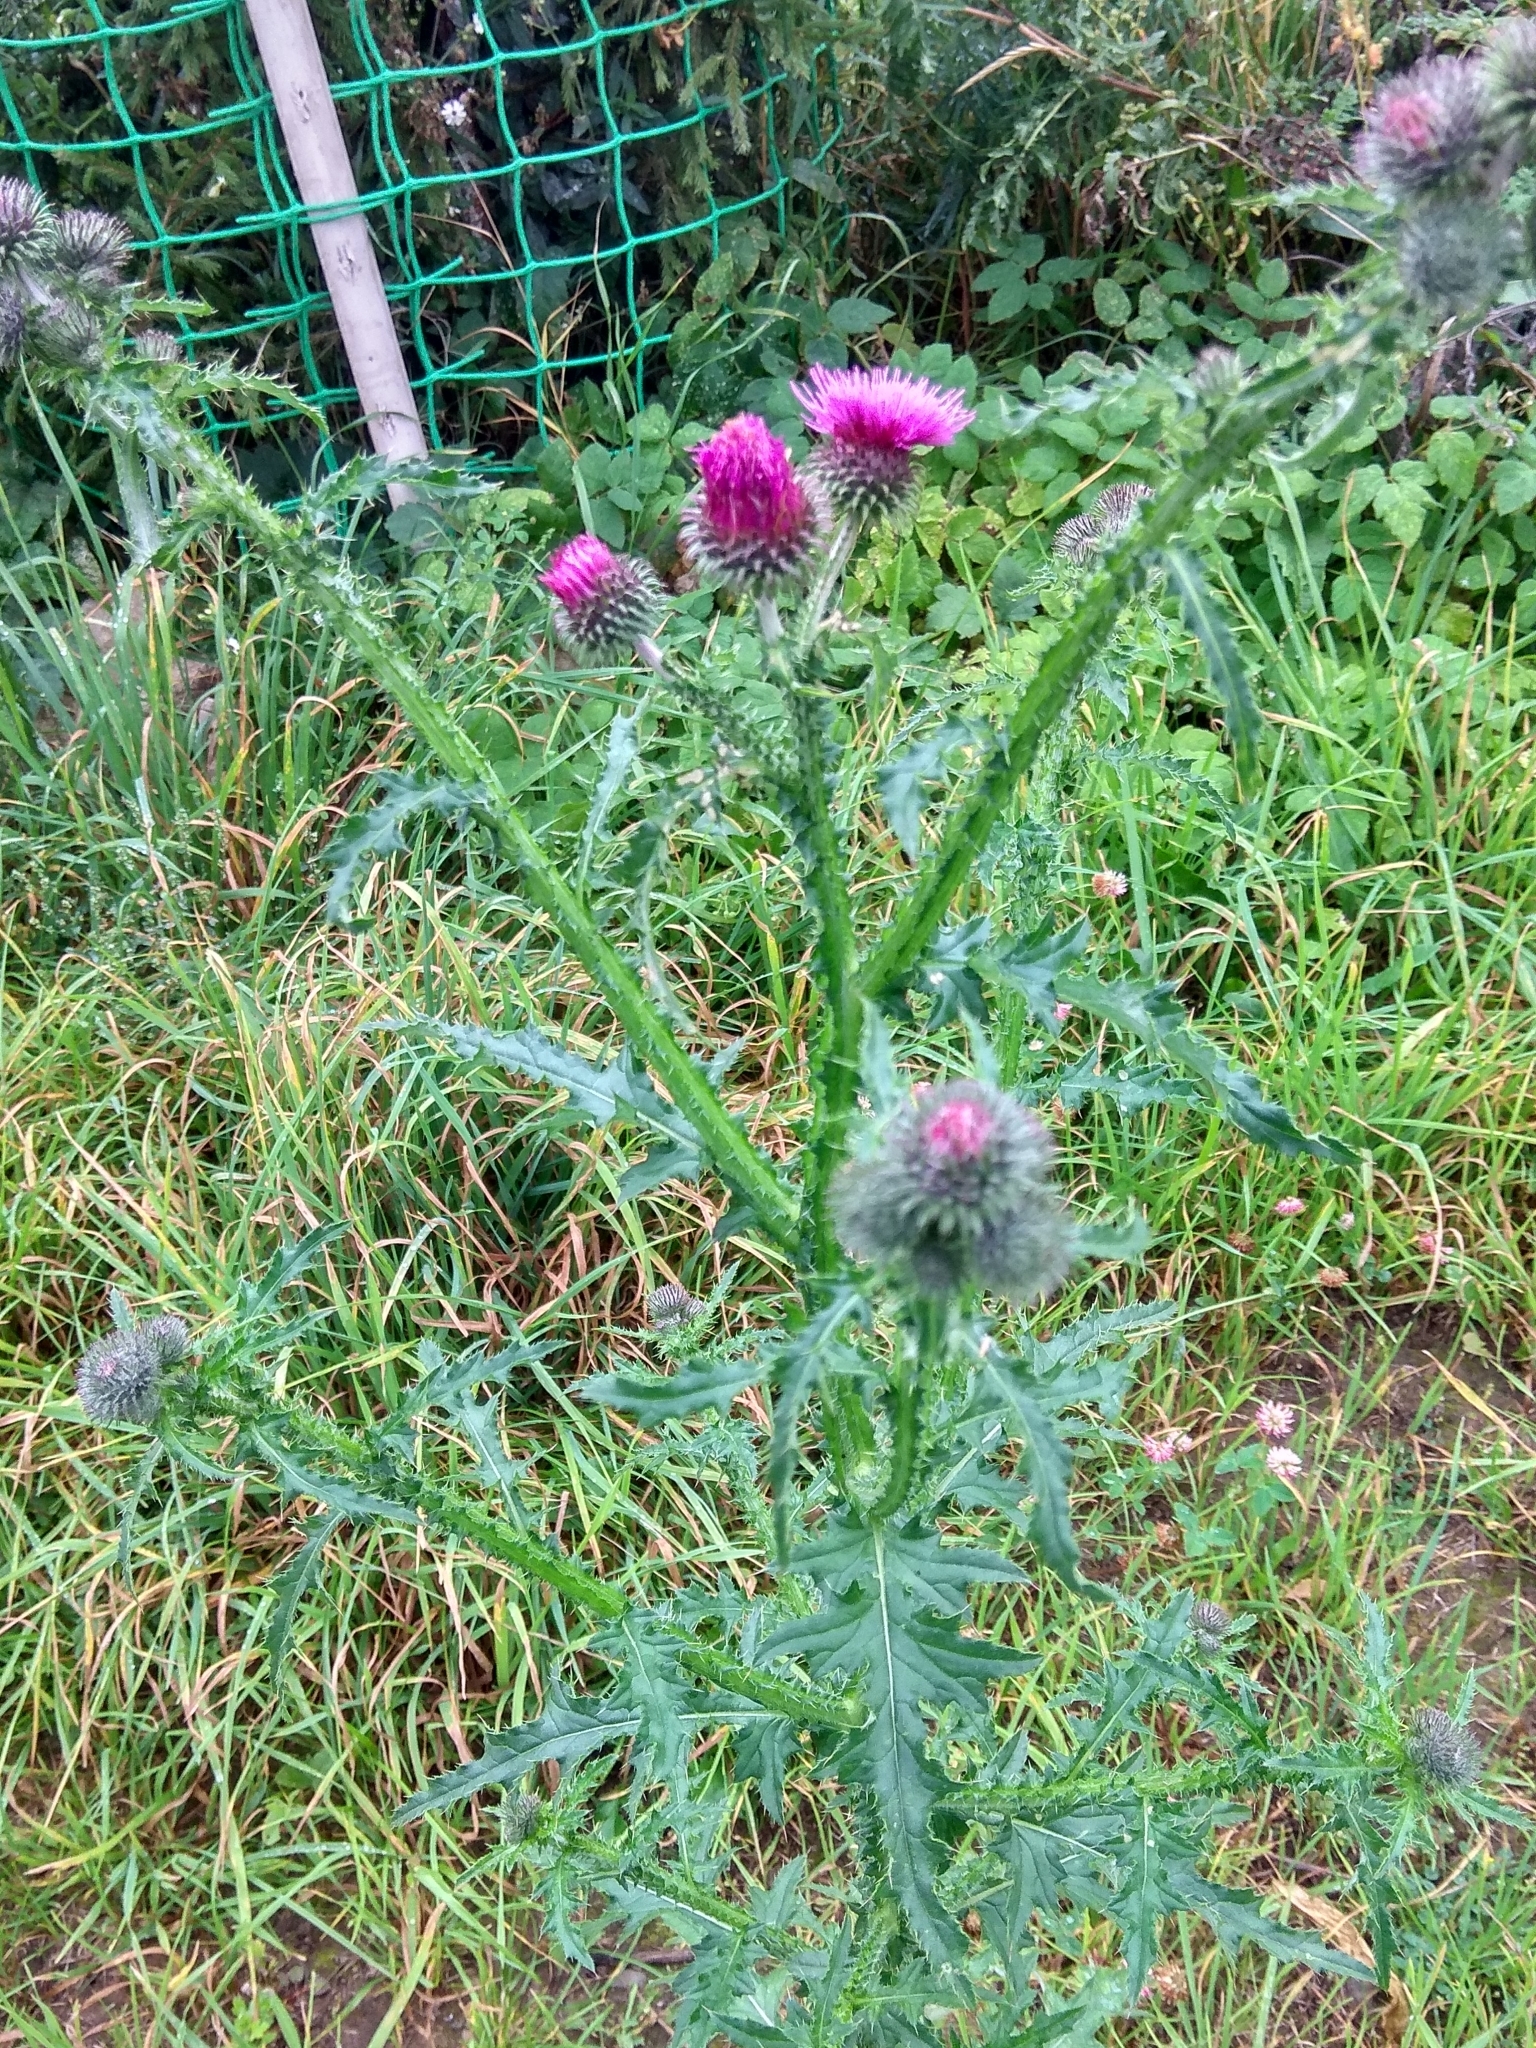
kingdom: Plantae
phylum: Tracheophyta
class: Magnoliopsida
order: Asterales
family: Asteraceae
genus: Carduus
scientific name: Carduus crispus
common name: Welted thistle
